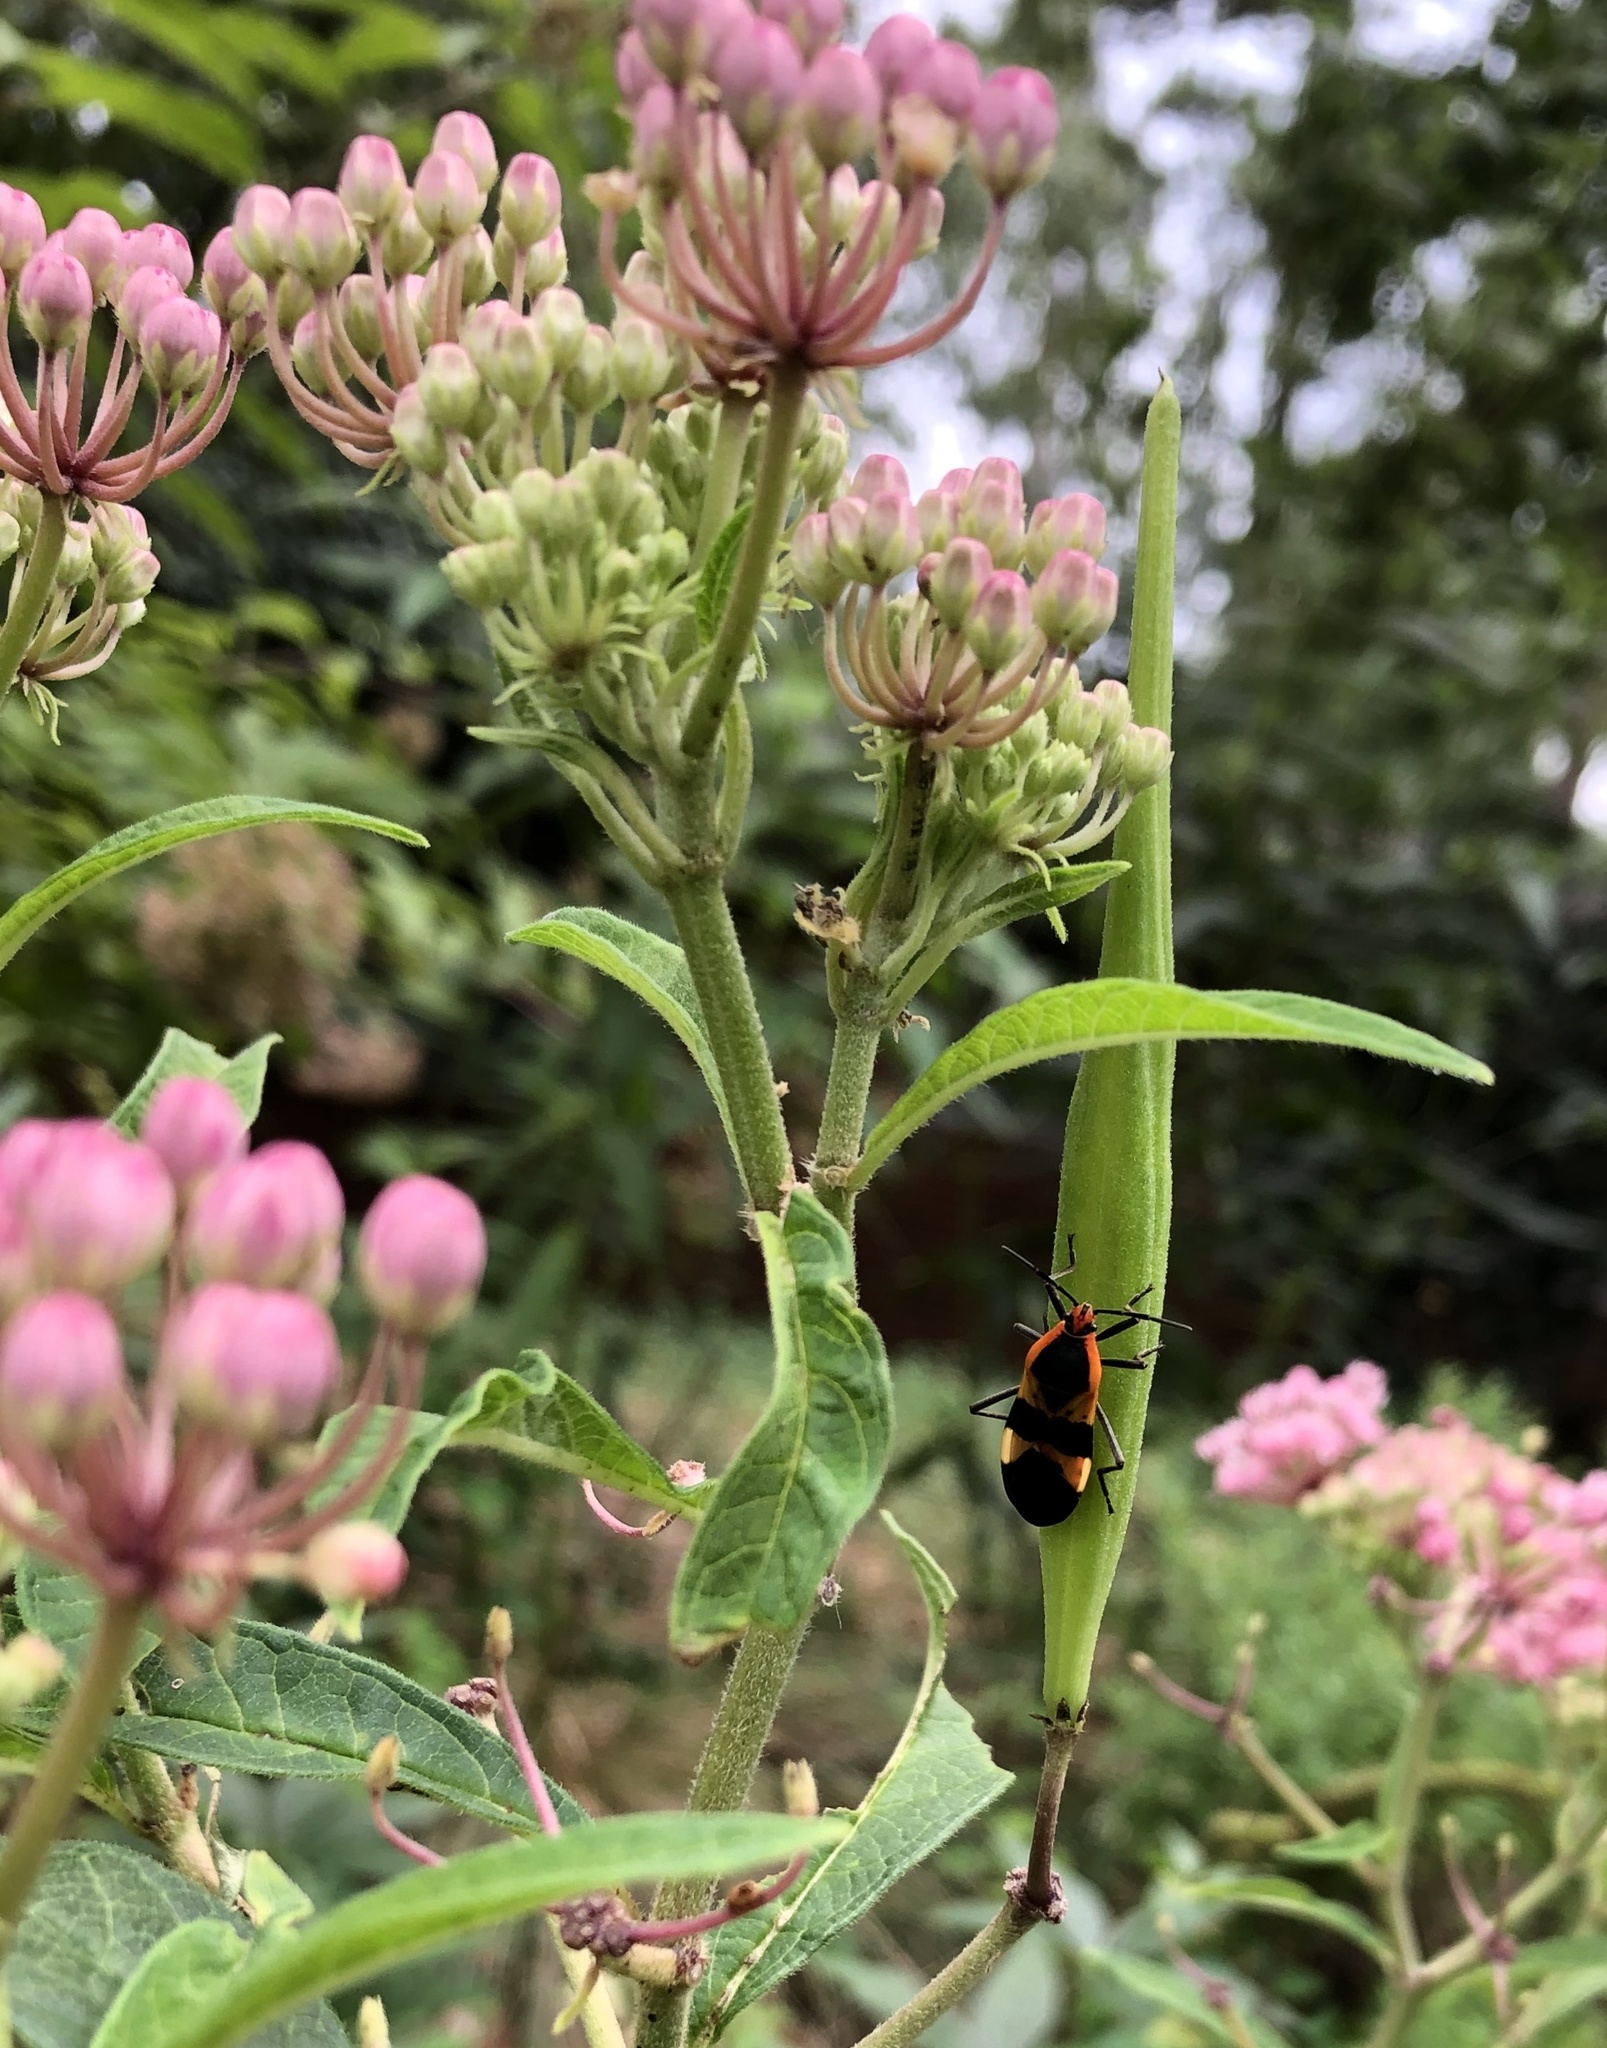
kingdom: Animalia
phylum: Arthropoda
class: Insecta
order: Hemiptera
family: Lygaeidae
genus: Oncopeltus
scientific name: Oncopeltus fasciatus
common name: Large milkweed bug
